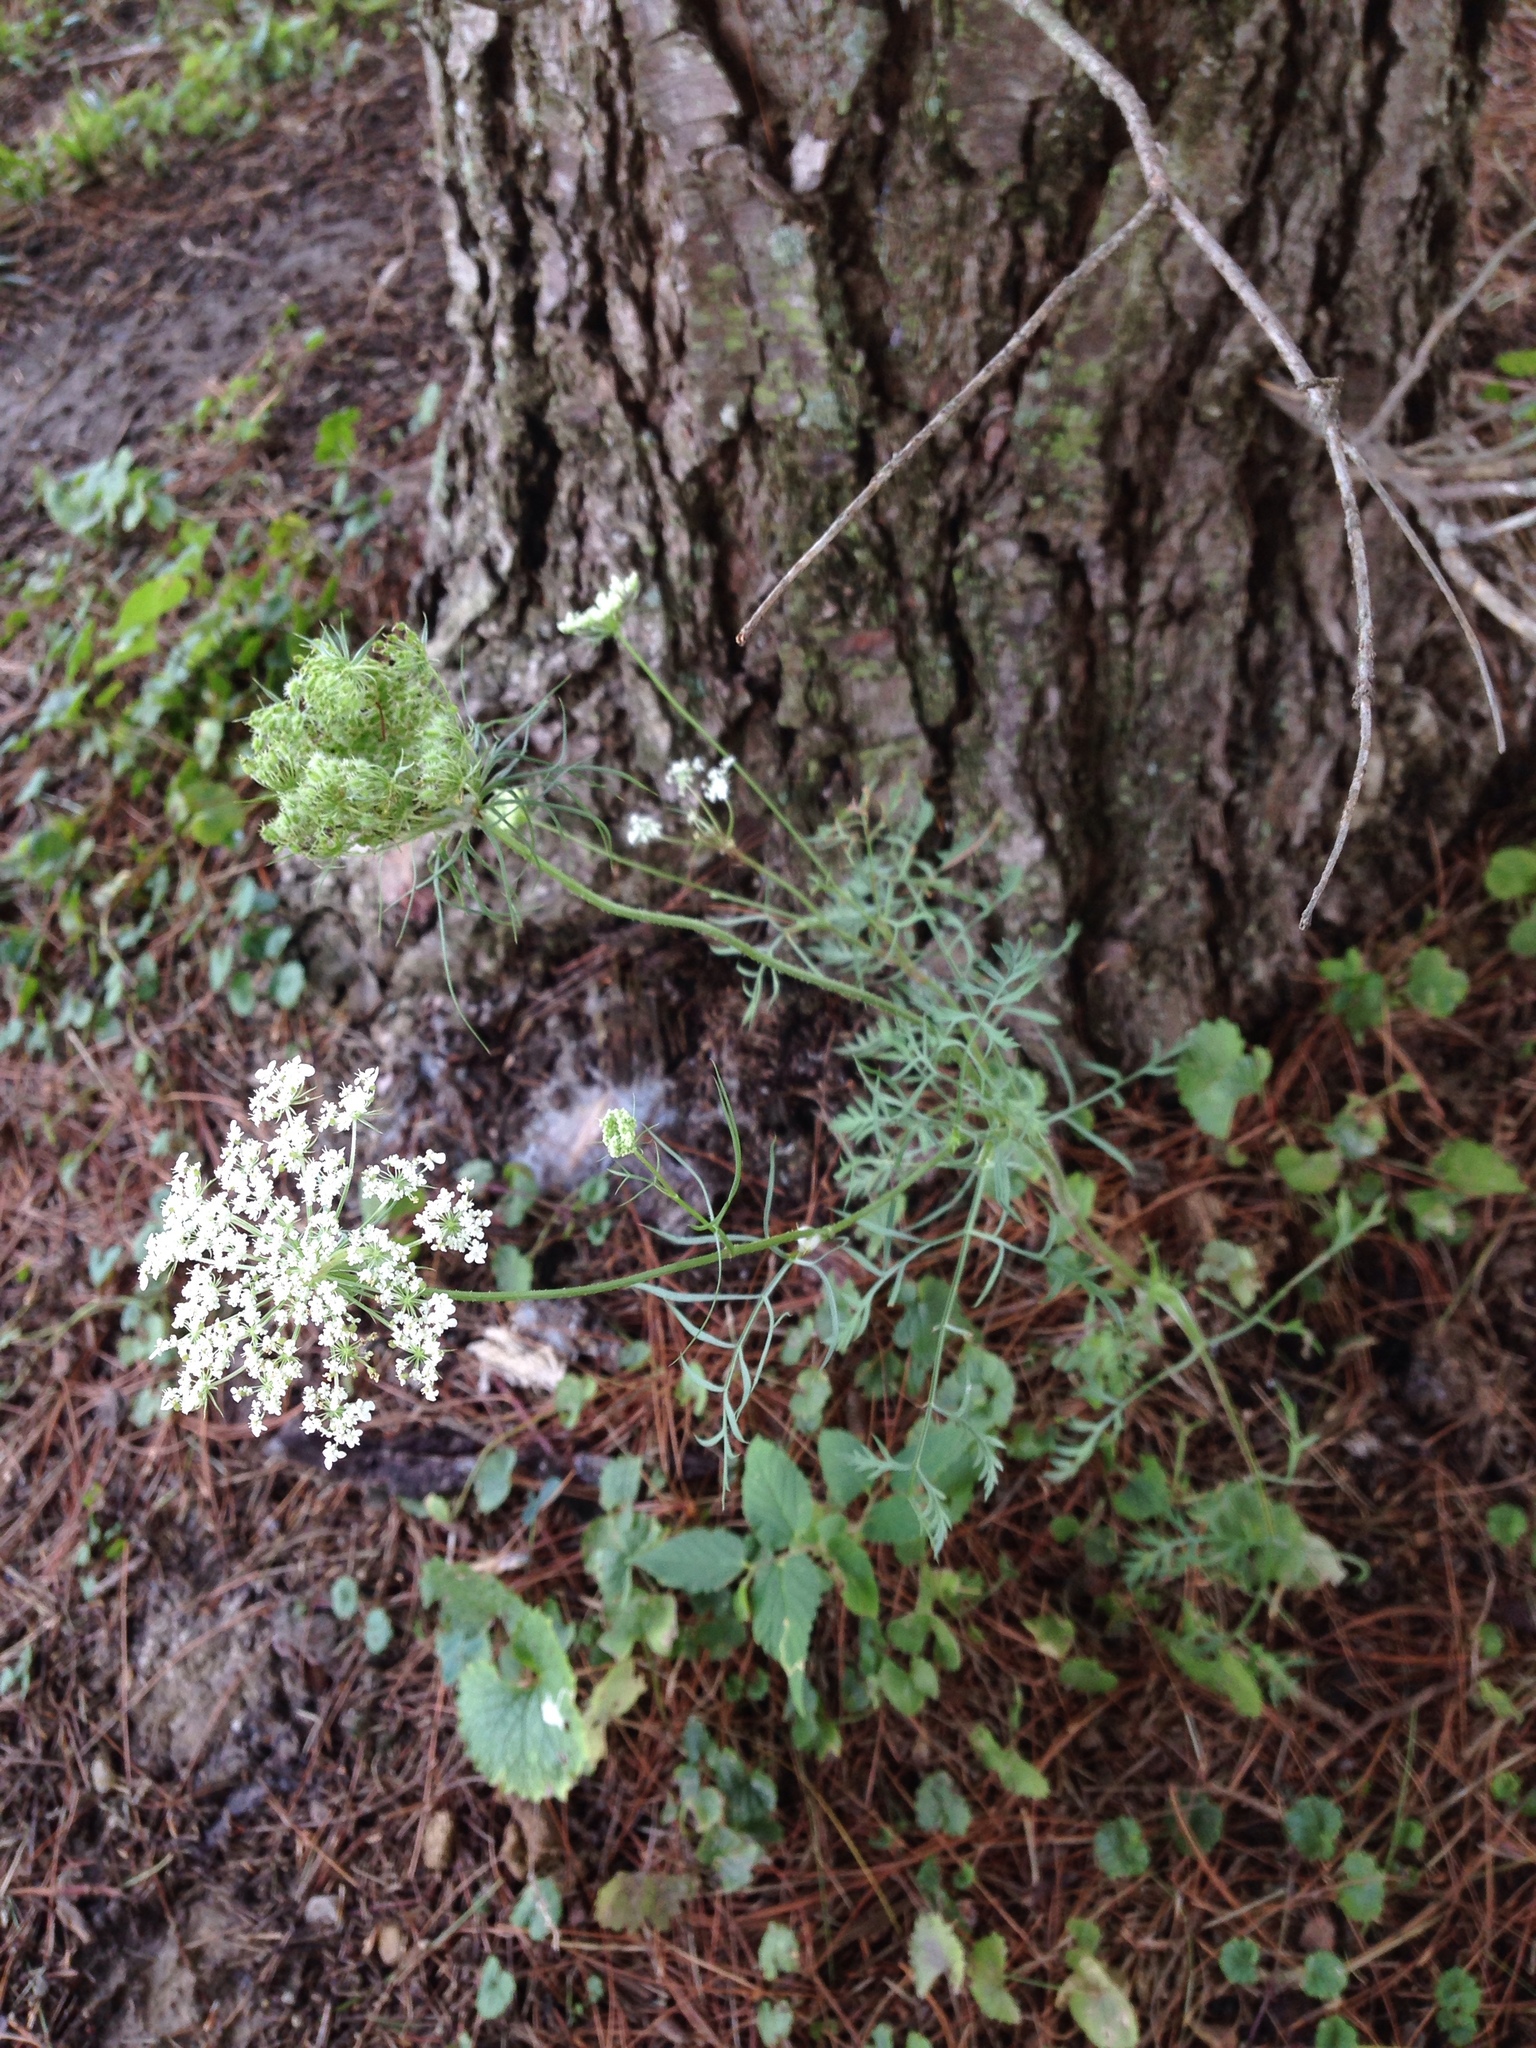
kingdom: Plantae
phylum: Tracheophyta
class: Magnoliopsida
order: Apiales
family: Apiaceae
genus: Daucus
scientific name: Daucus carota
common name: Wild carrot
